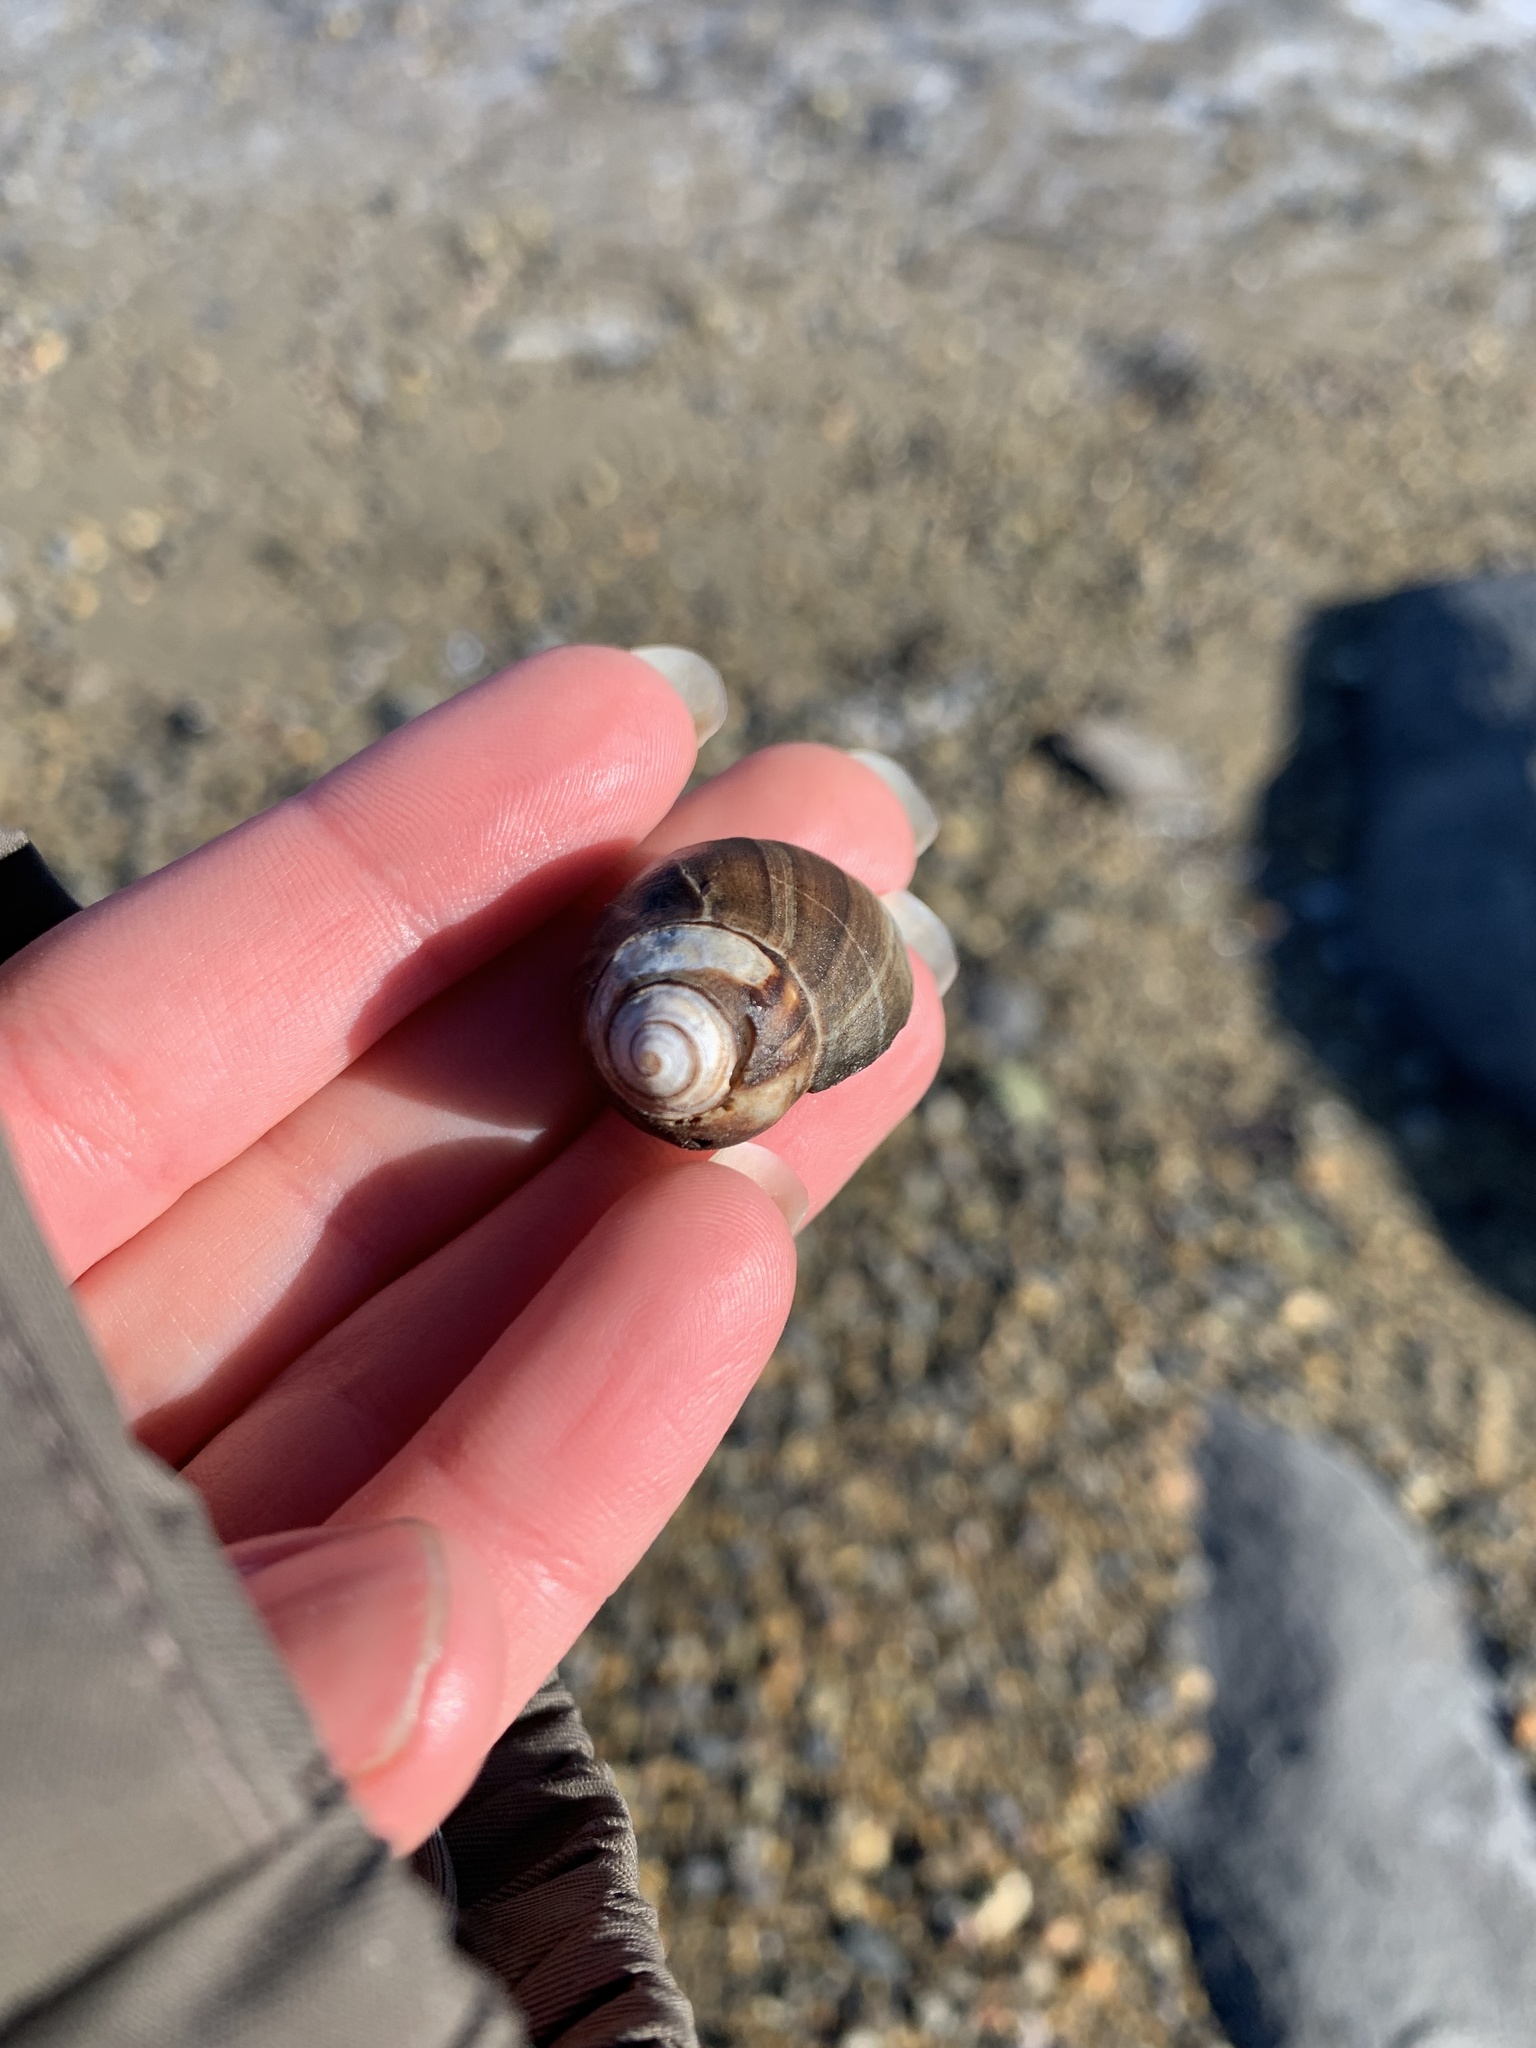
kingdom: Animalia
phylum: Mollusca
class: Gastropoda
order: Littorinimorpha
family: Littorinidae
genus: Littorina
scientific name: Littorina littorea
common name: Common periwinkle
